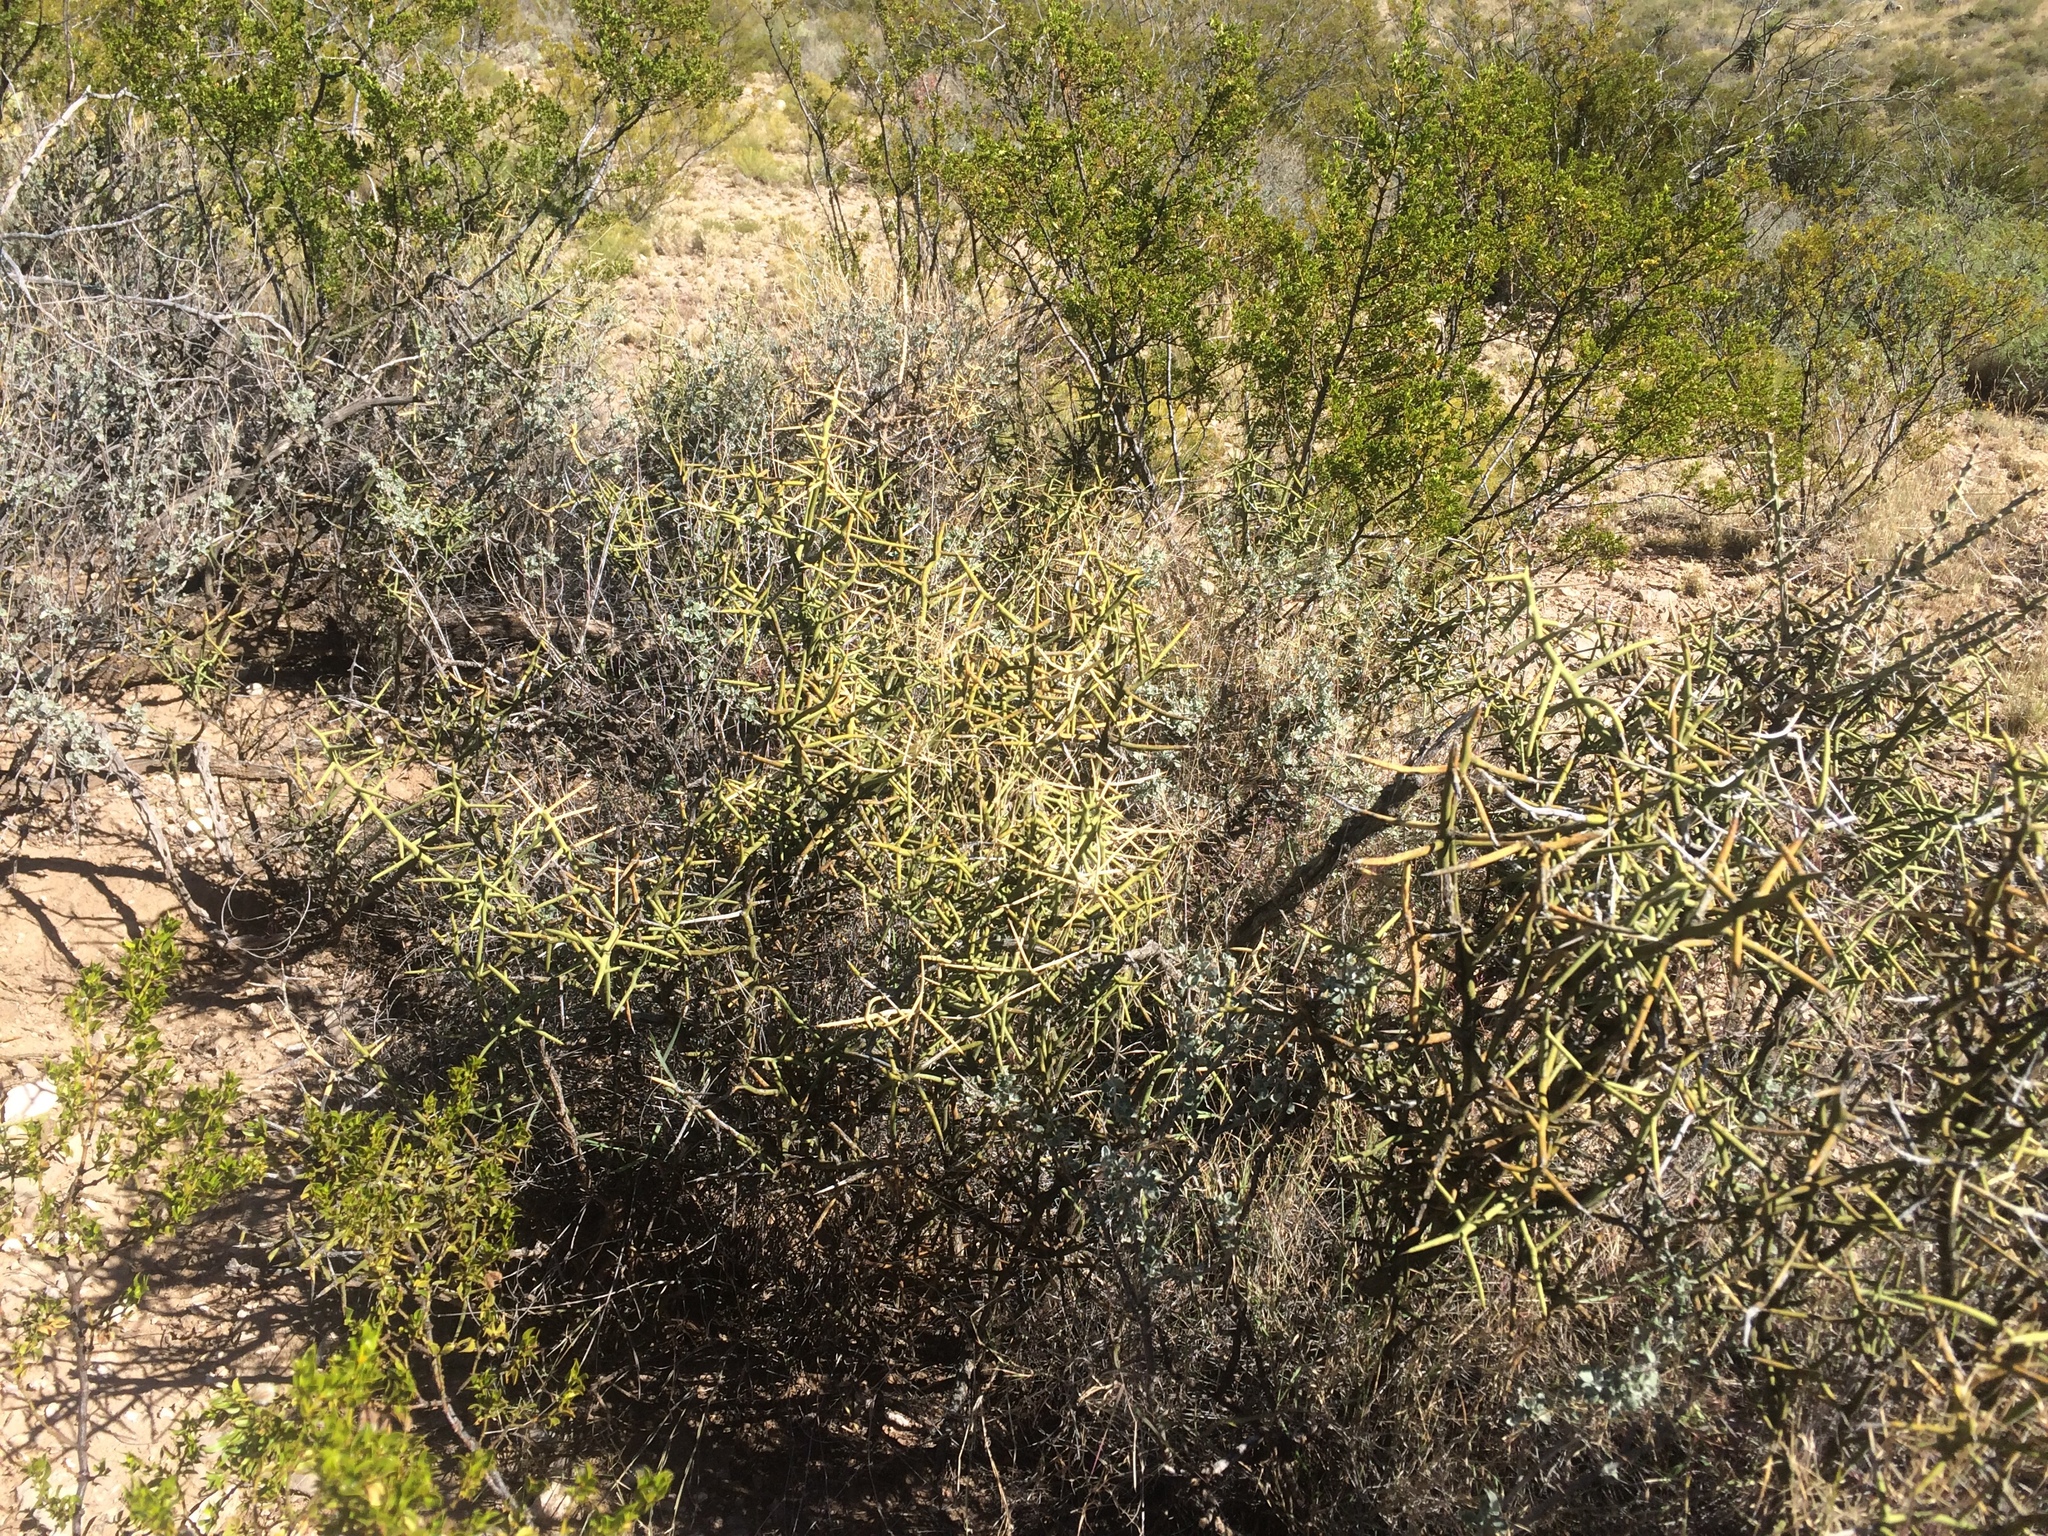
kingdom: Plantae
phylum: Tracheophyta
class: Magnoliopsida
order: Brassicales
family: Koeberliniaceae
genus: Koeberlinia
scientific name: Koeberlinia spinosa
